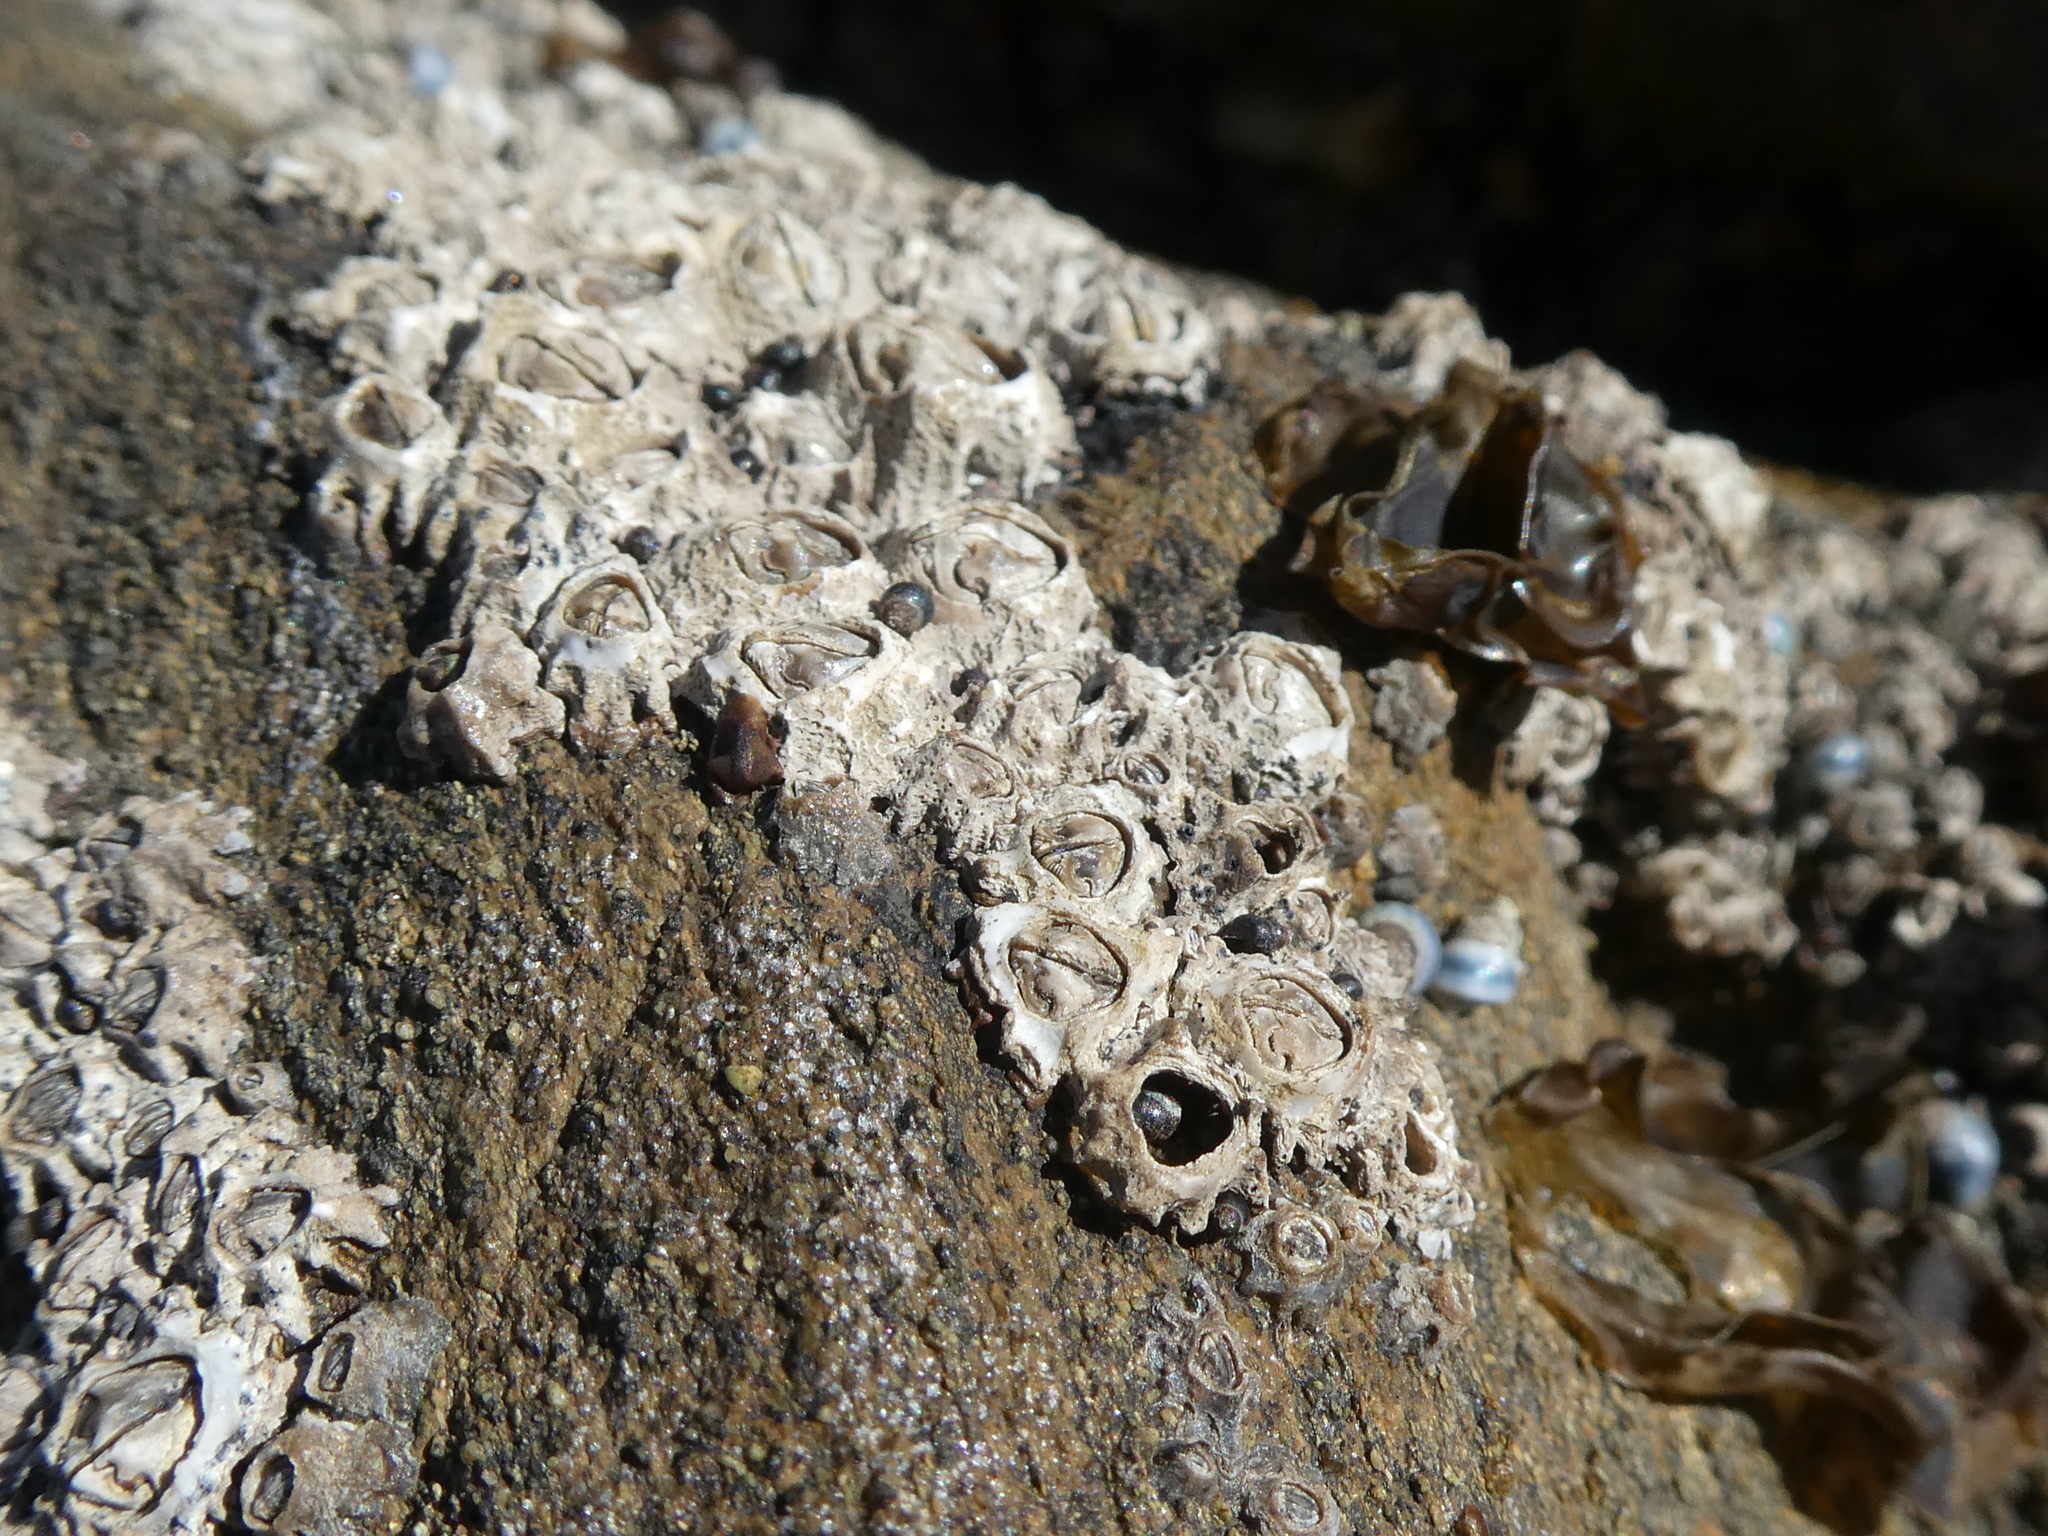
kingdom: Animalia
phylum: Arthropoda
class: Maxillopoda
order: Sessilia
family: Tetraclitidae
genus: Epopella
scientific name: Epopella plicata
